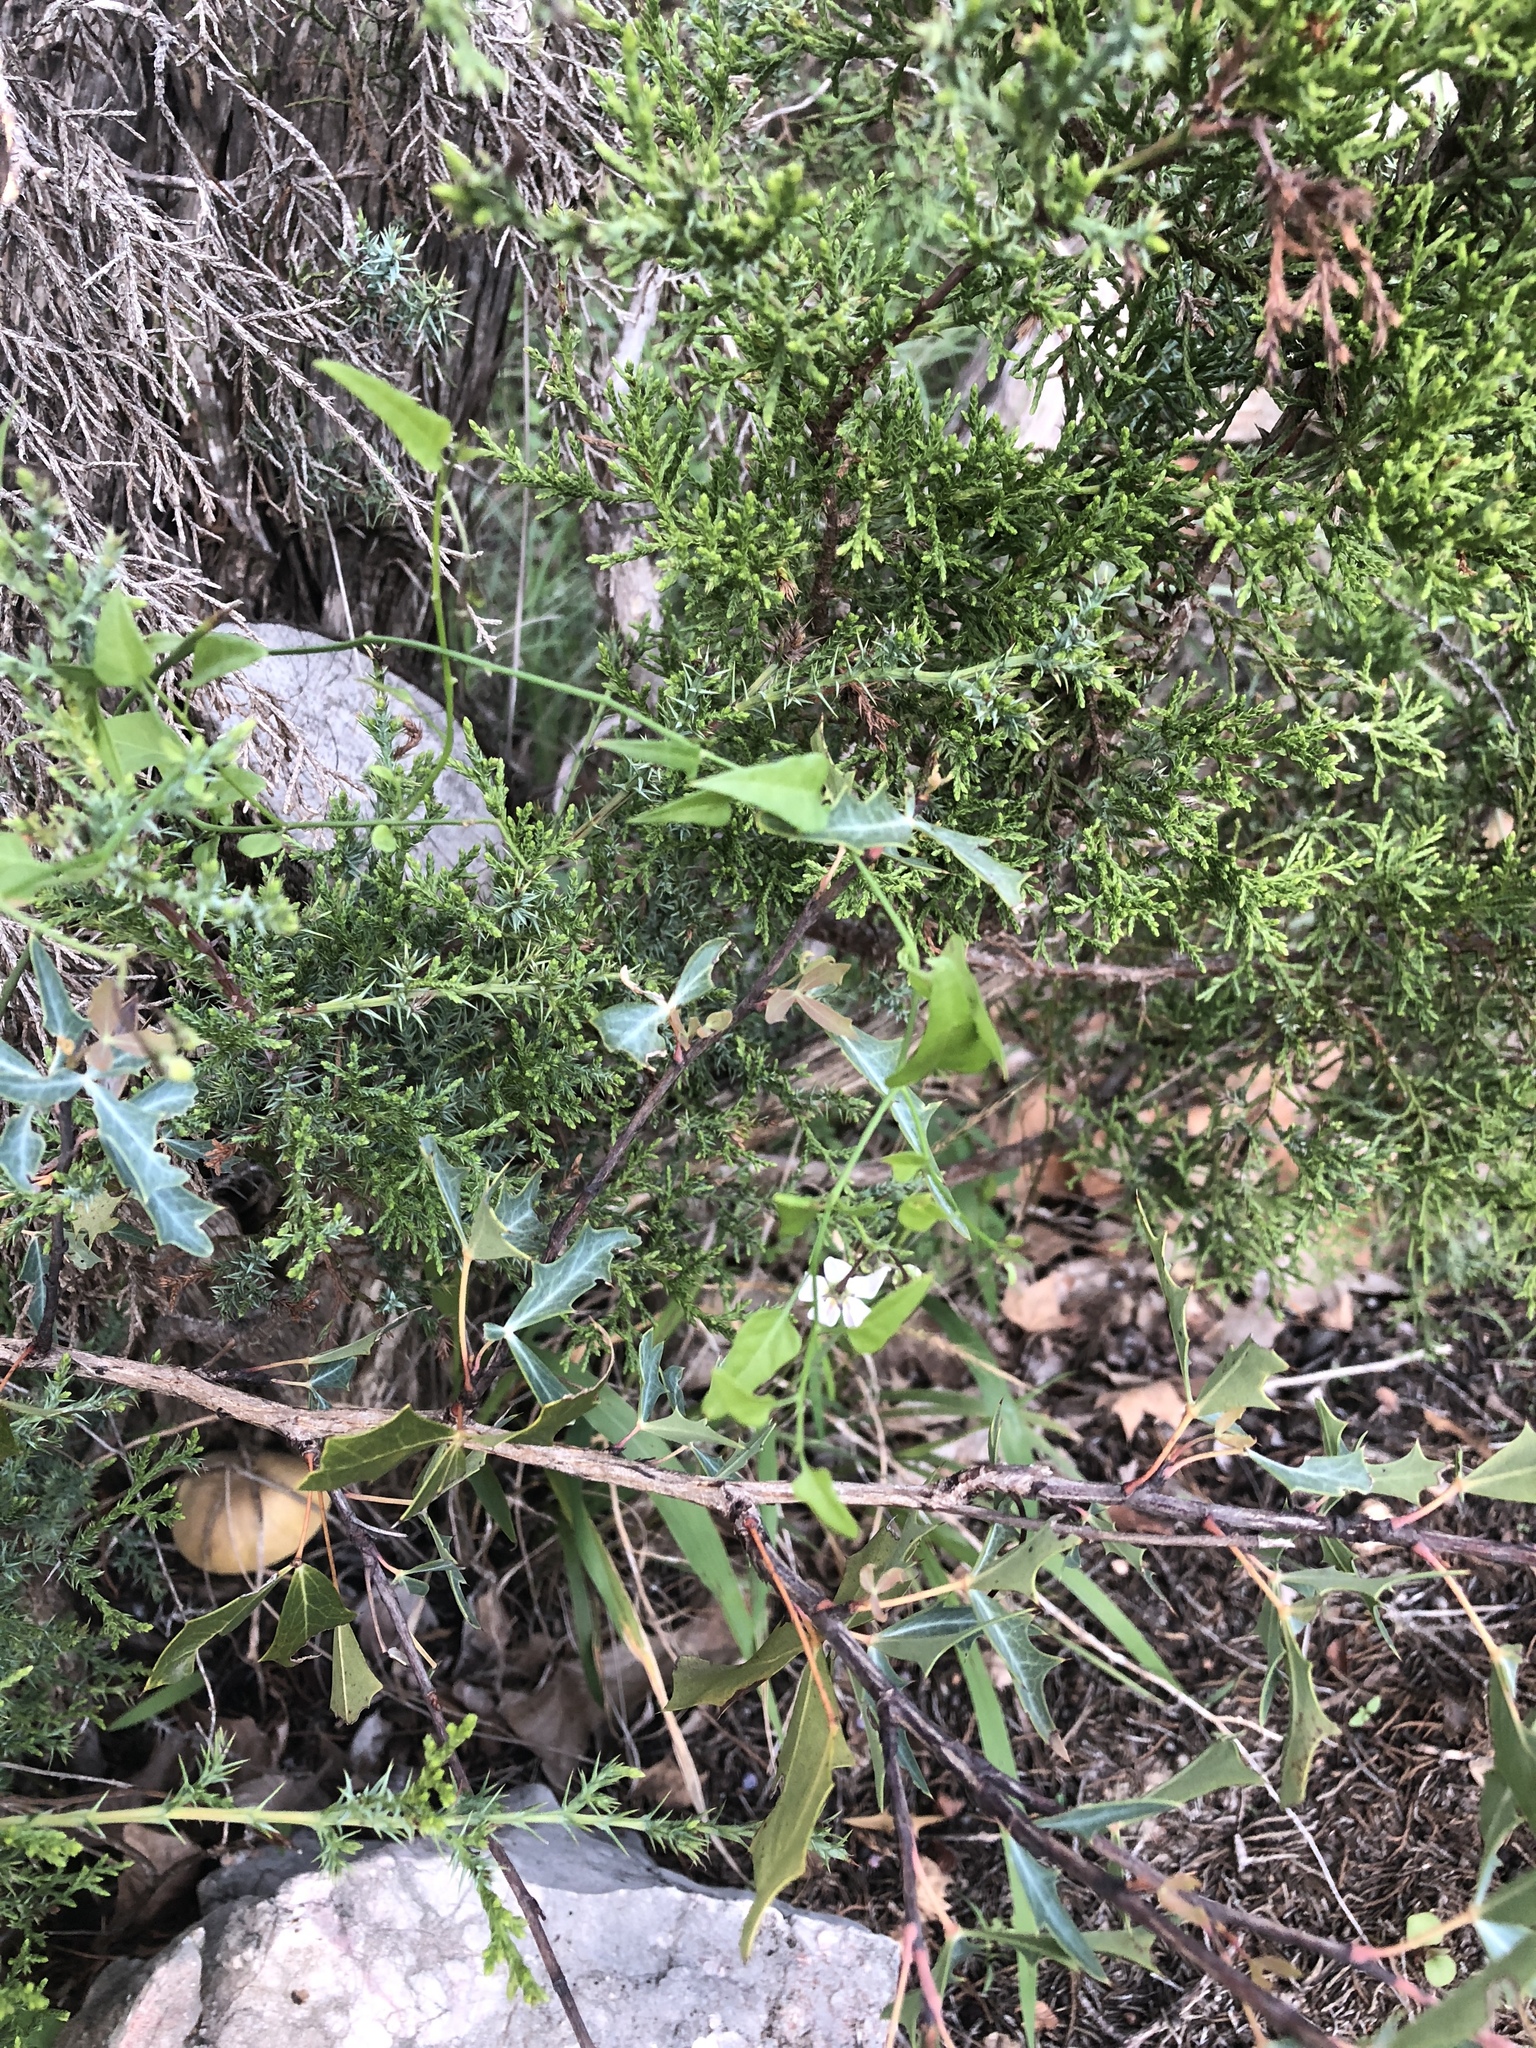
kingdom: Plantae
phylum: Tracheophyta
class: Magnoliopsida
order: Solanales
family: Solanaceae
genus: Solanum
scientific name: Solanum triquetrum
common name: Texas nightshade
